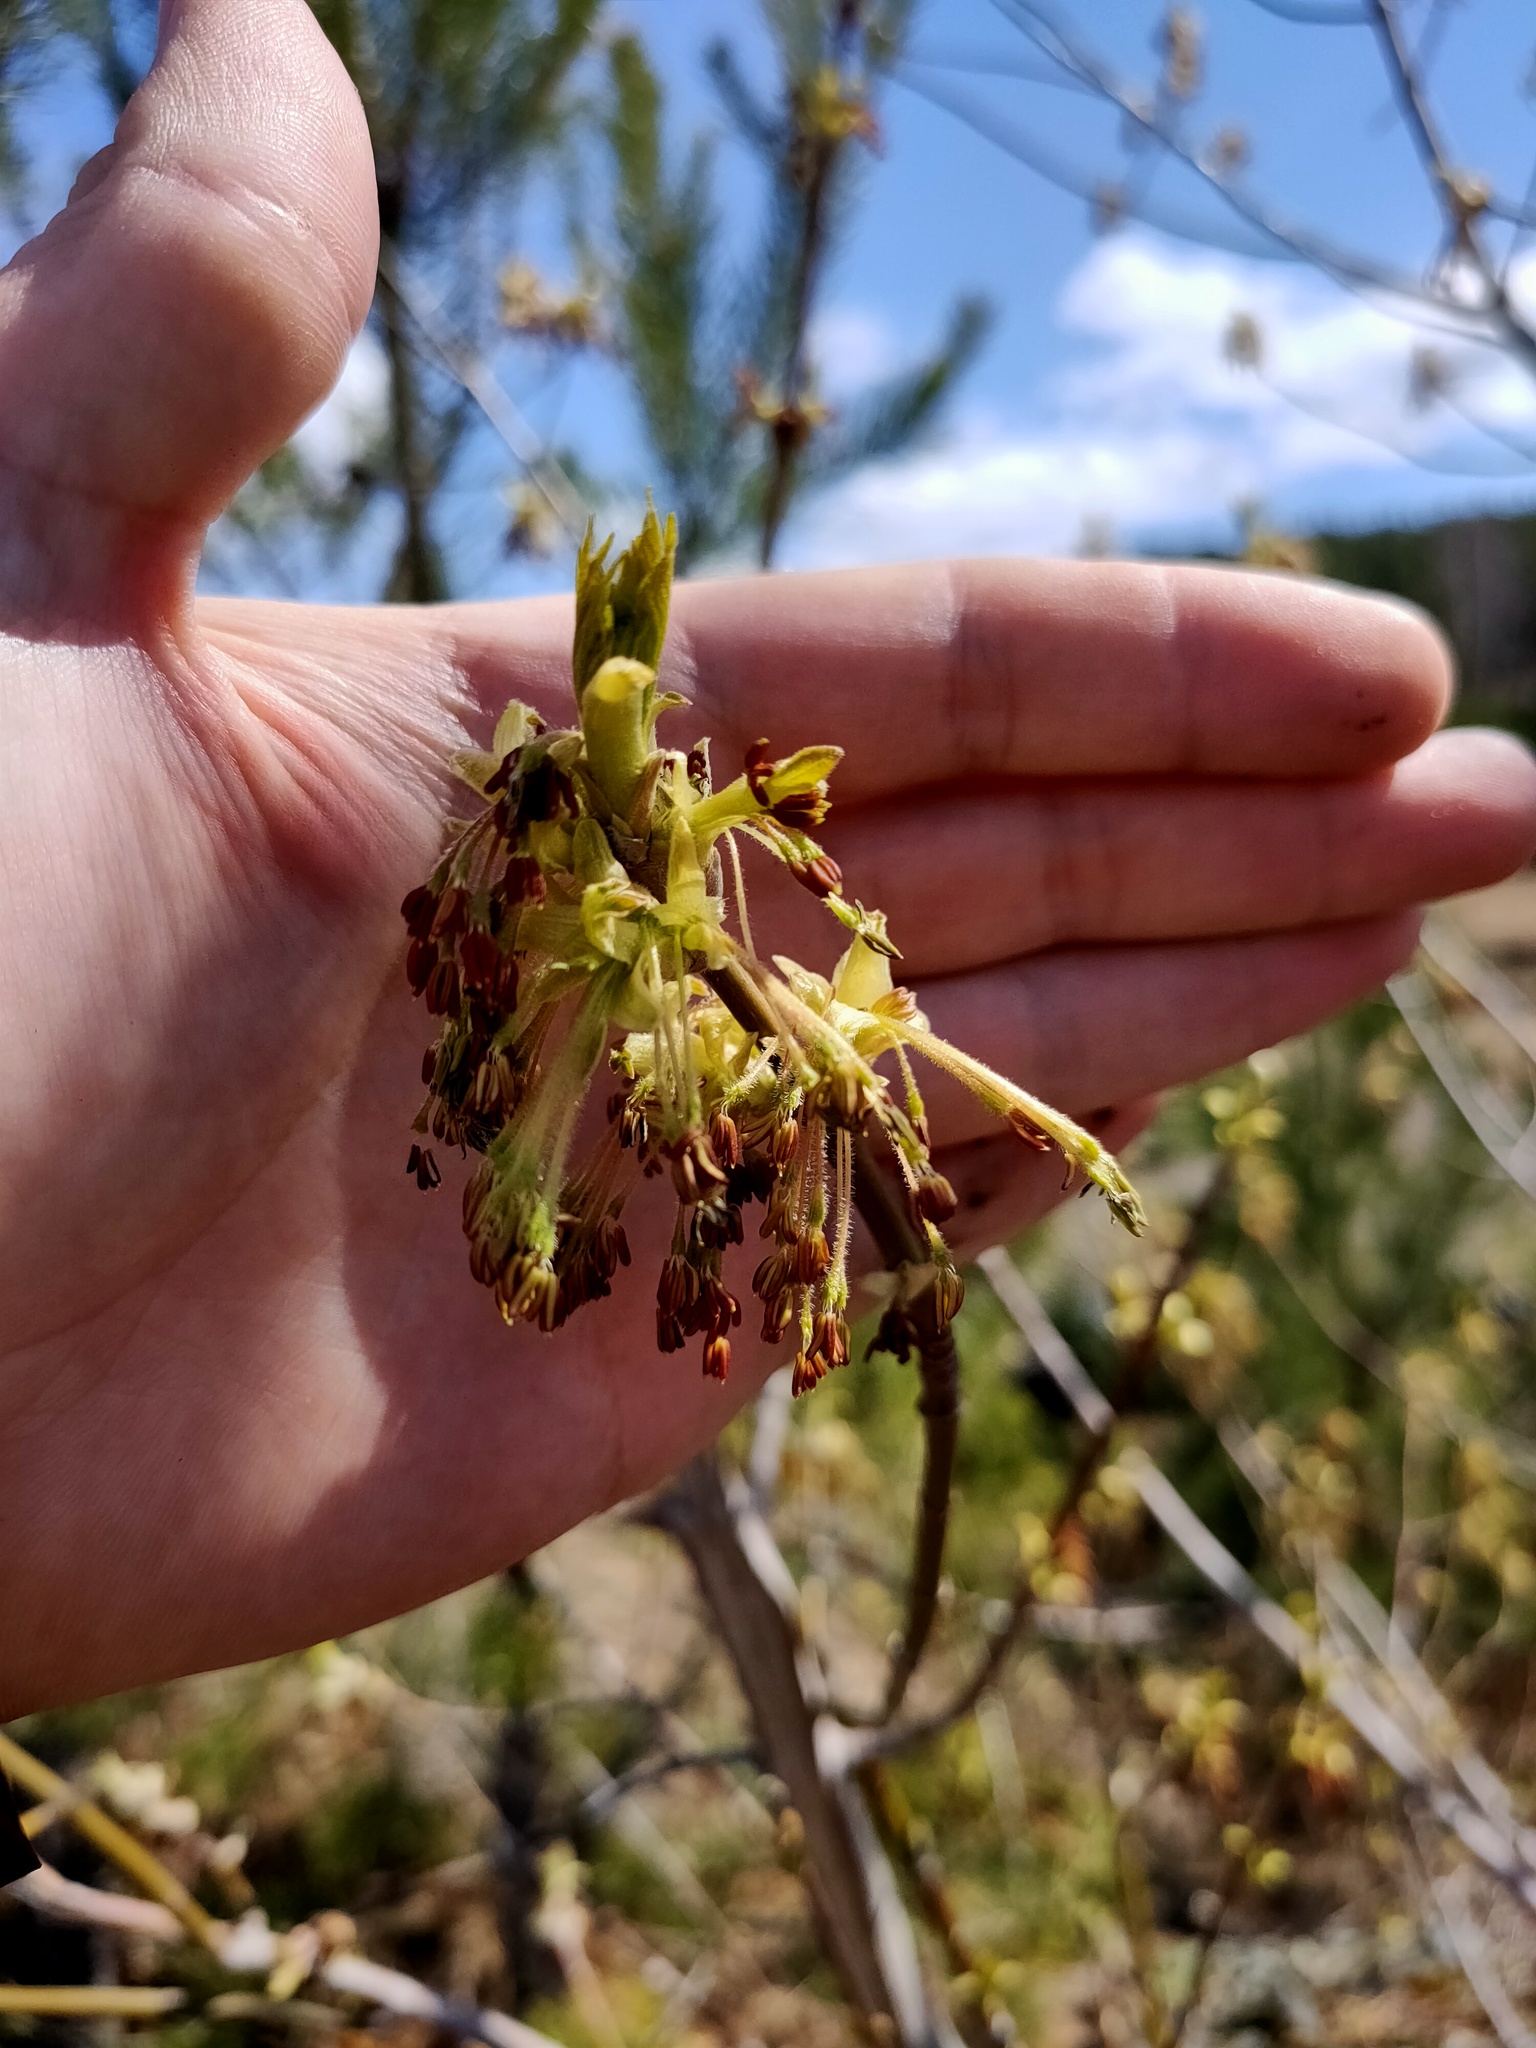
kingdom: Plantae
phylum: Tracheophyta
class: Magnoliopsida
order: Sapindales
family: Sapindaceae
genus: Acer
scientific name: Acer negundo
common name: Ashleaf maple
